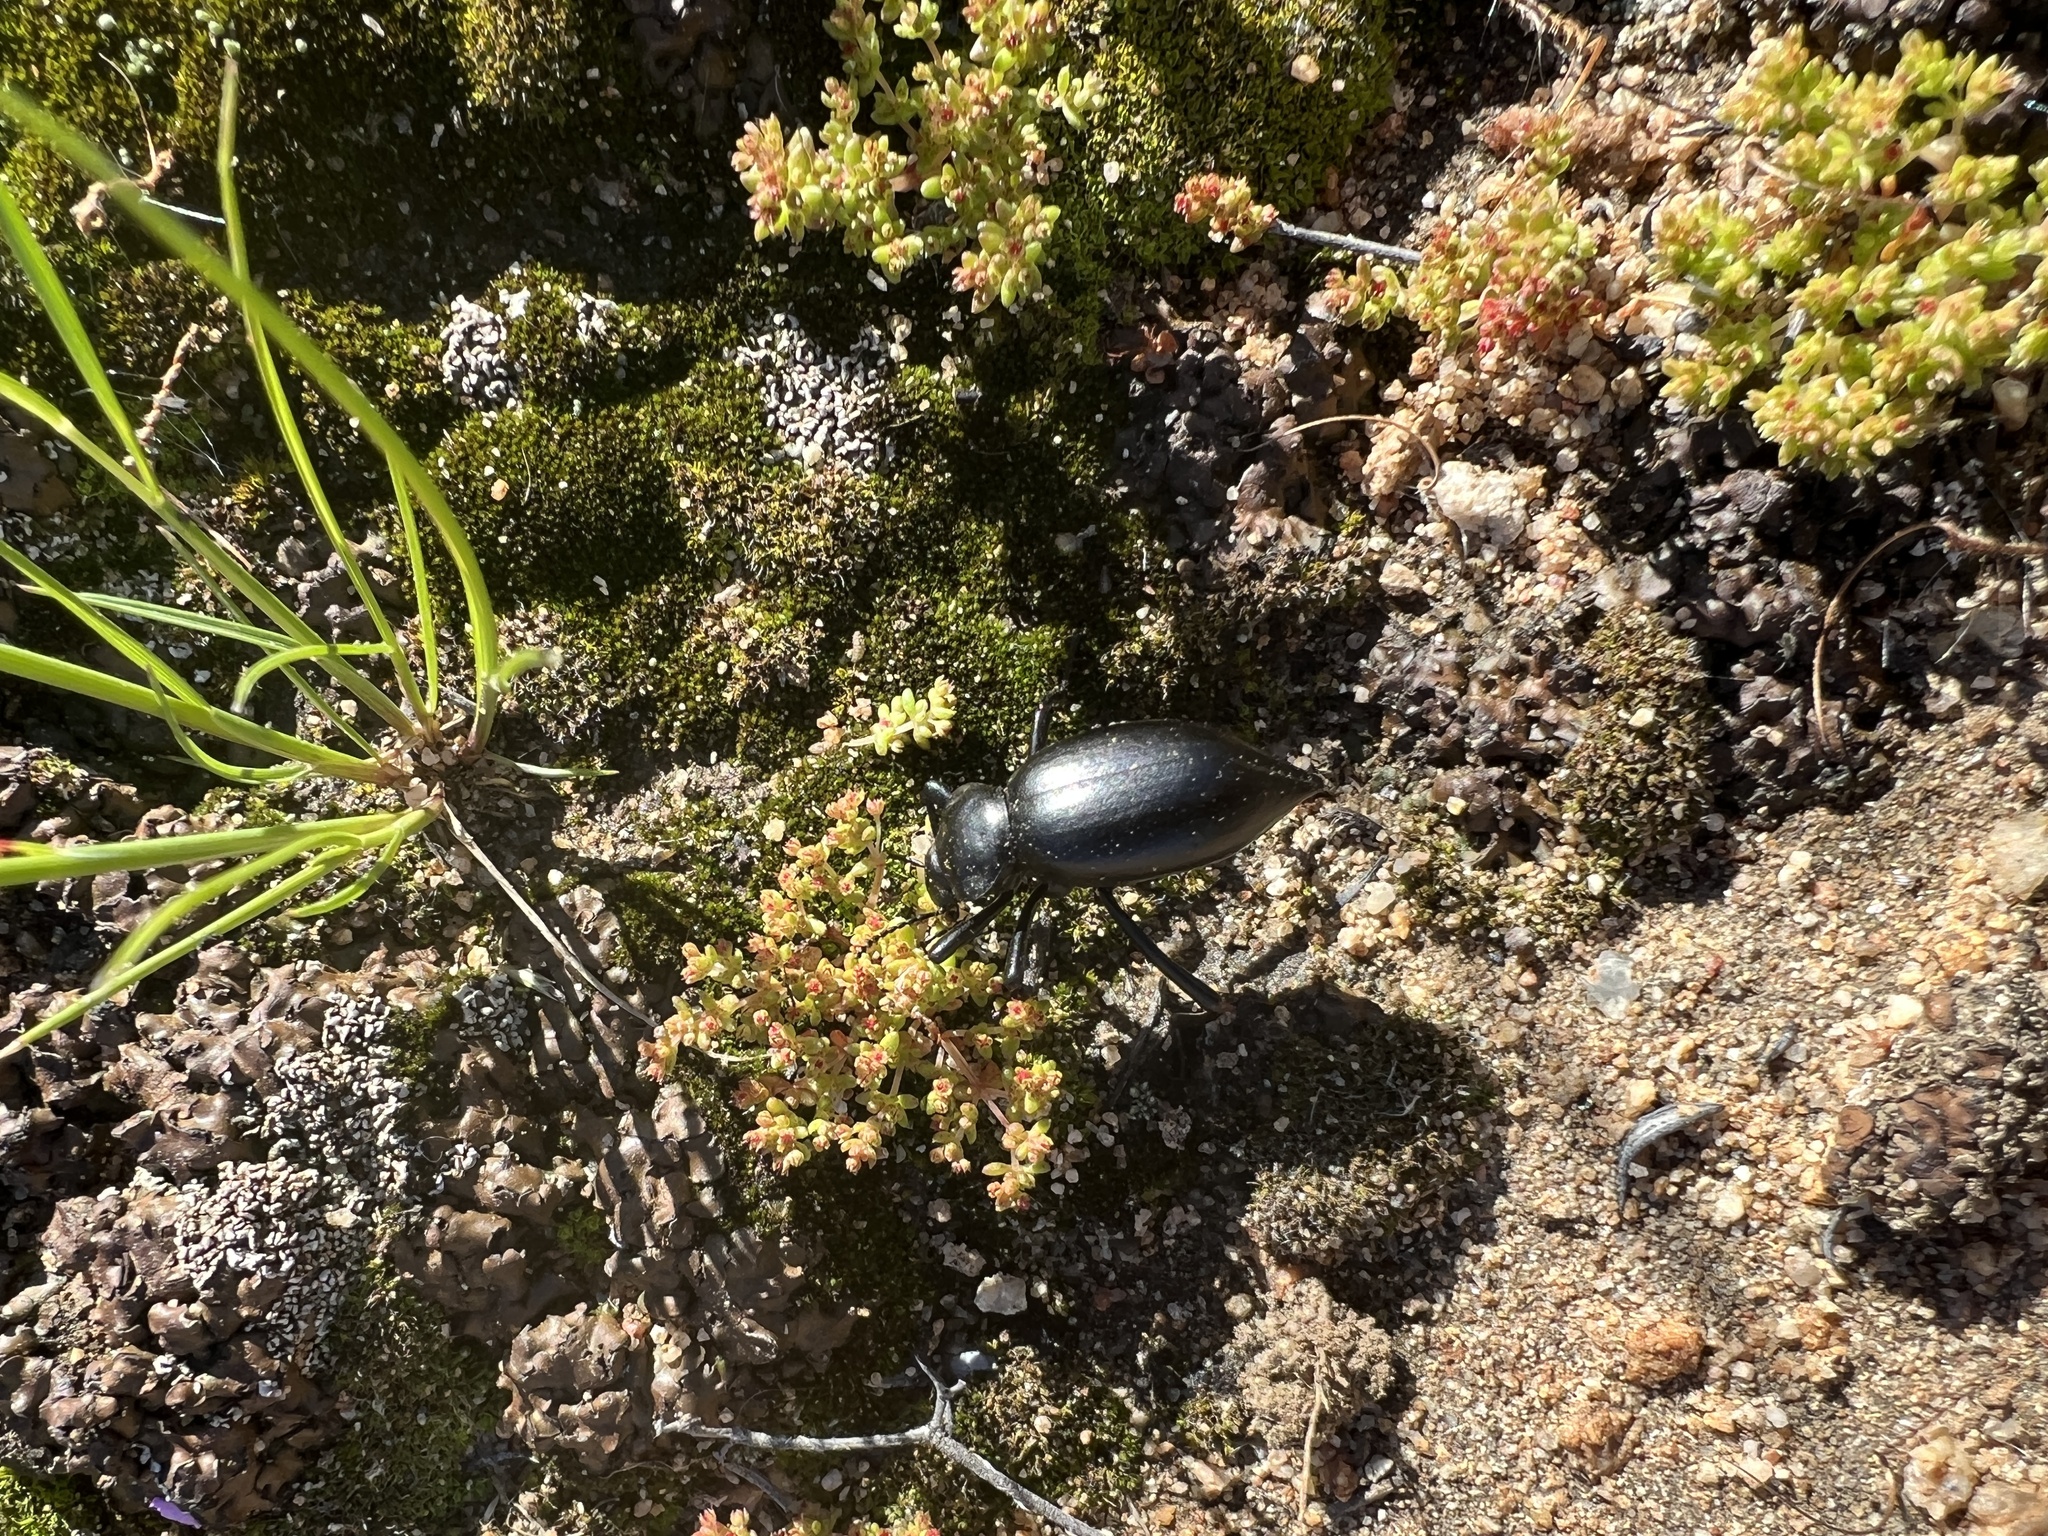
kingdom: Animalia
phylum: Arthropoda
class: Insecta
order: Coleoptera
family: Tenebrionidae
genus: Eleodes
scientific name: Eleodes acuticauda
